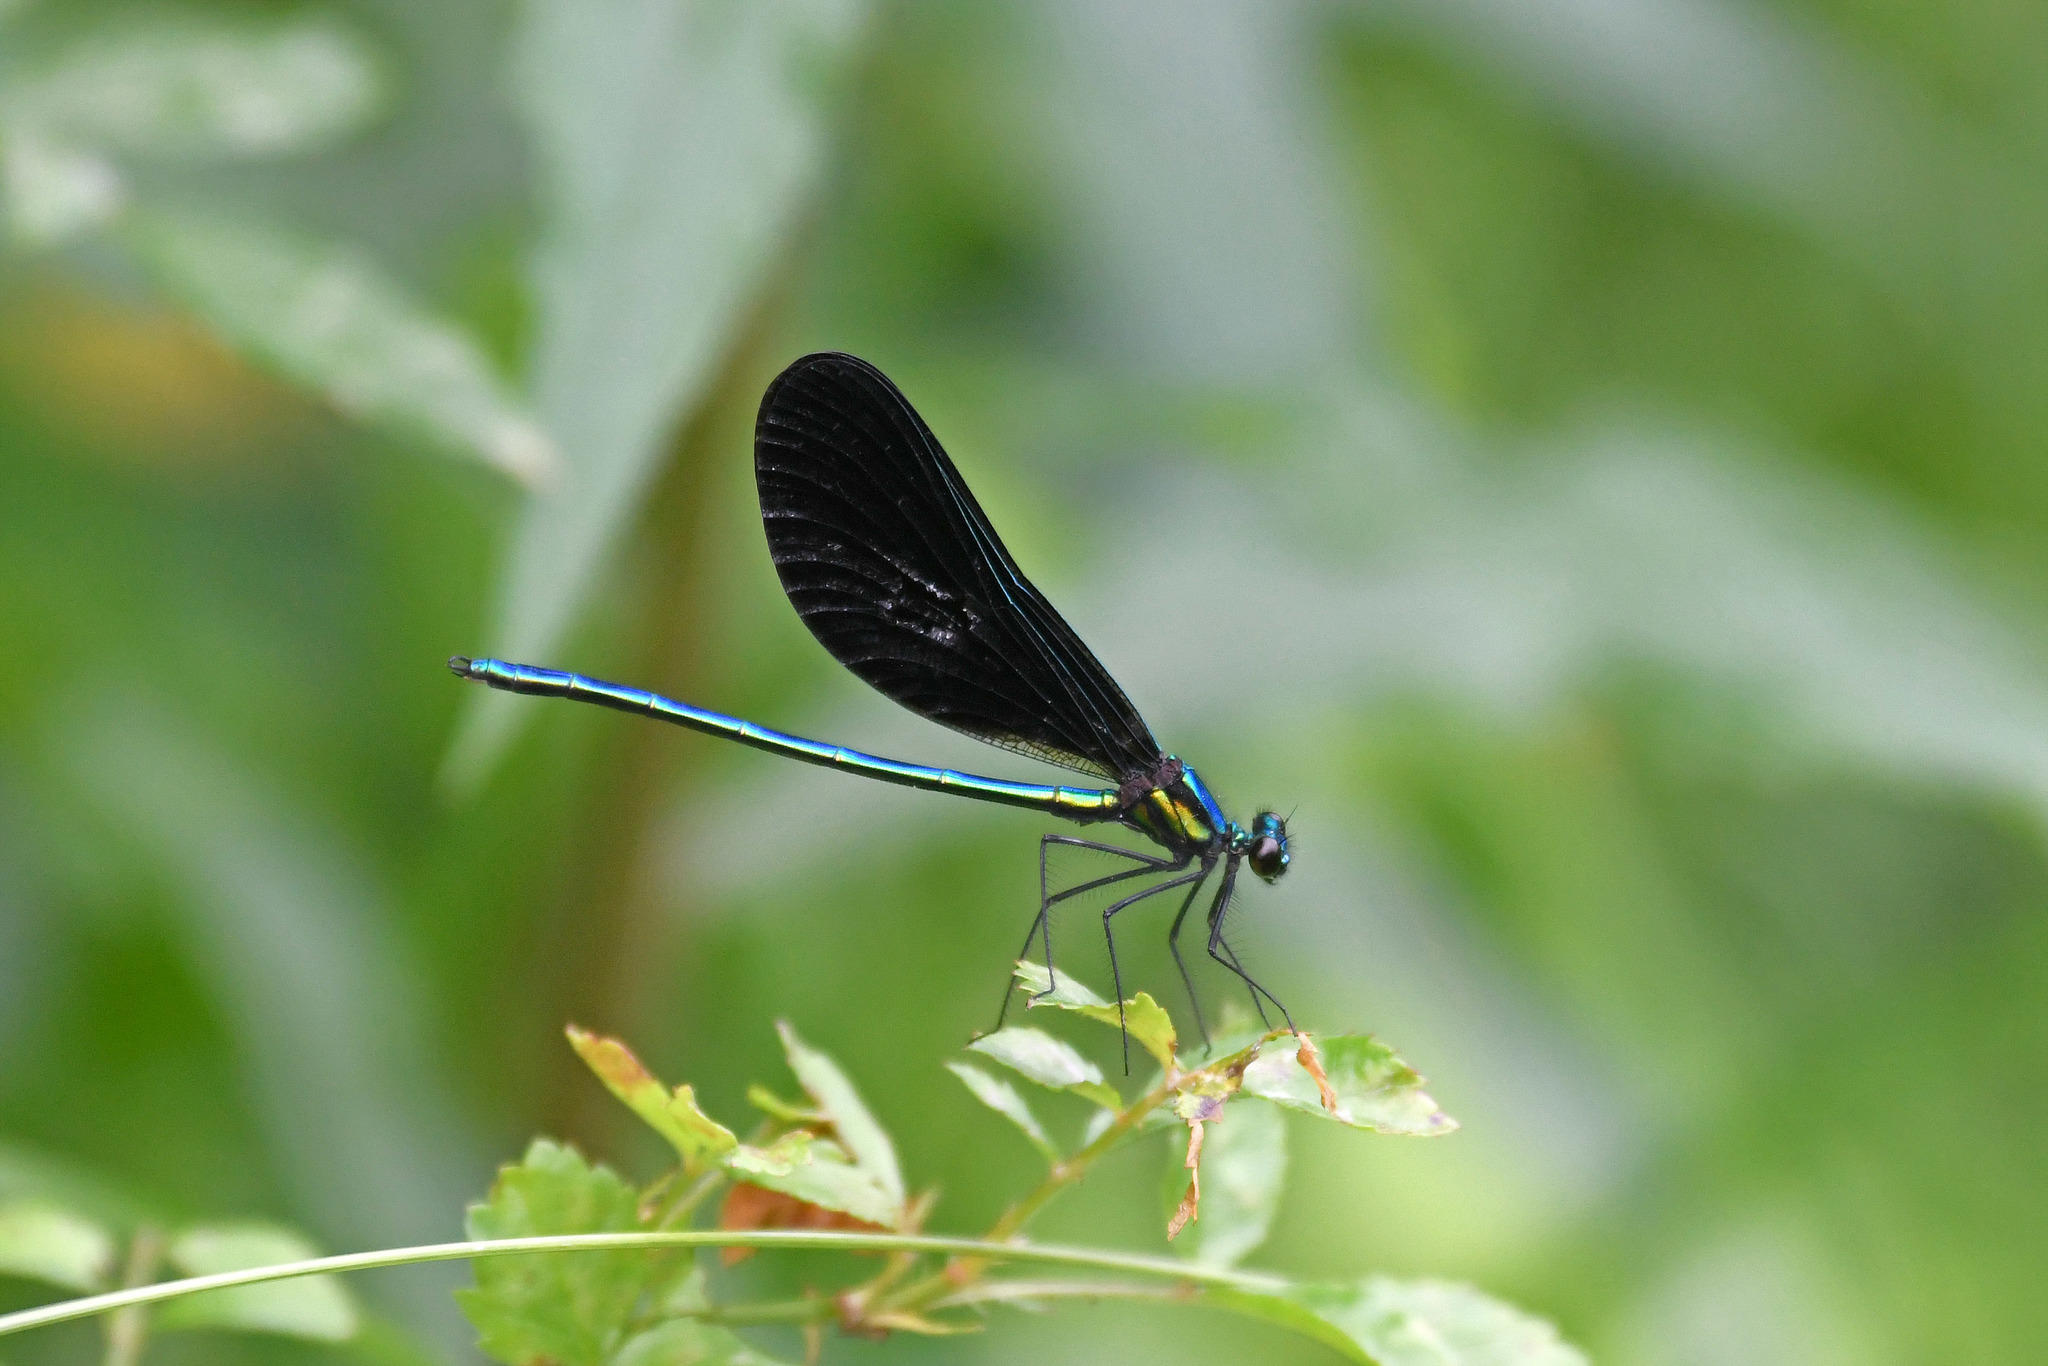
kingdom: Animalia
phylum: Arthropoda
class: Insecta
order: Odonata
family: Calopterygidae
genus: Calopteryx
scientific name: Calopteryx maculata
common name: Ebony jewelwing
